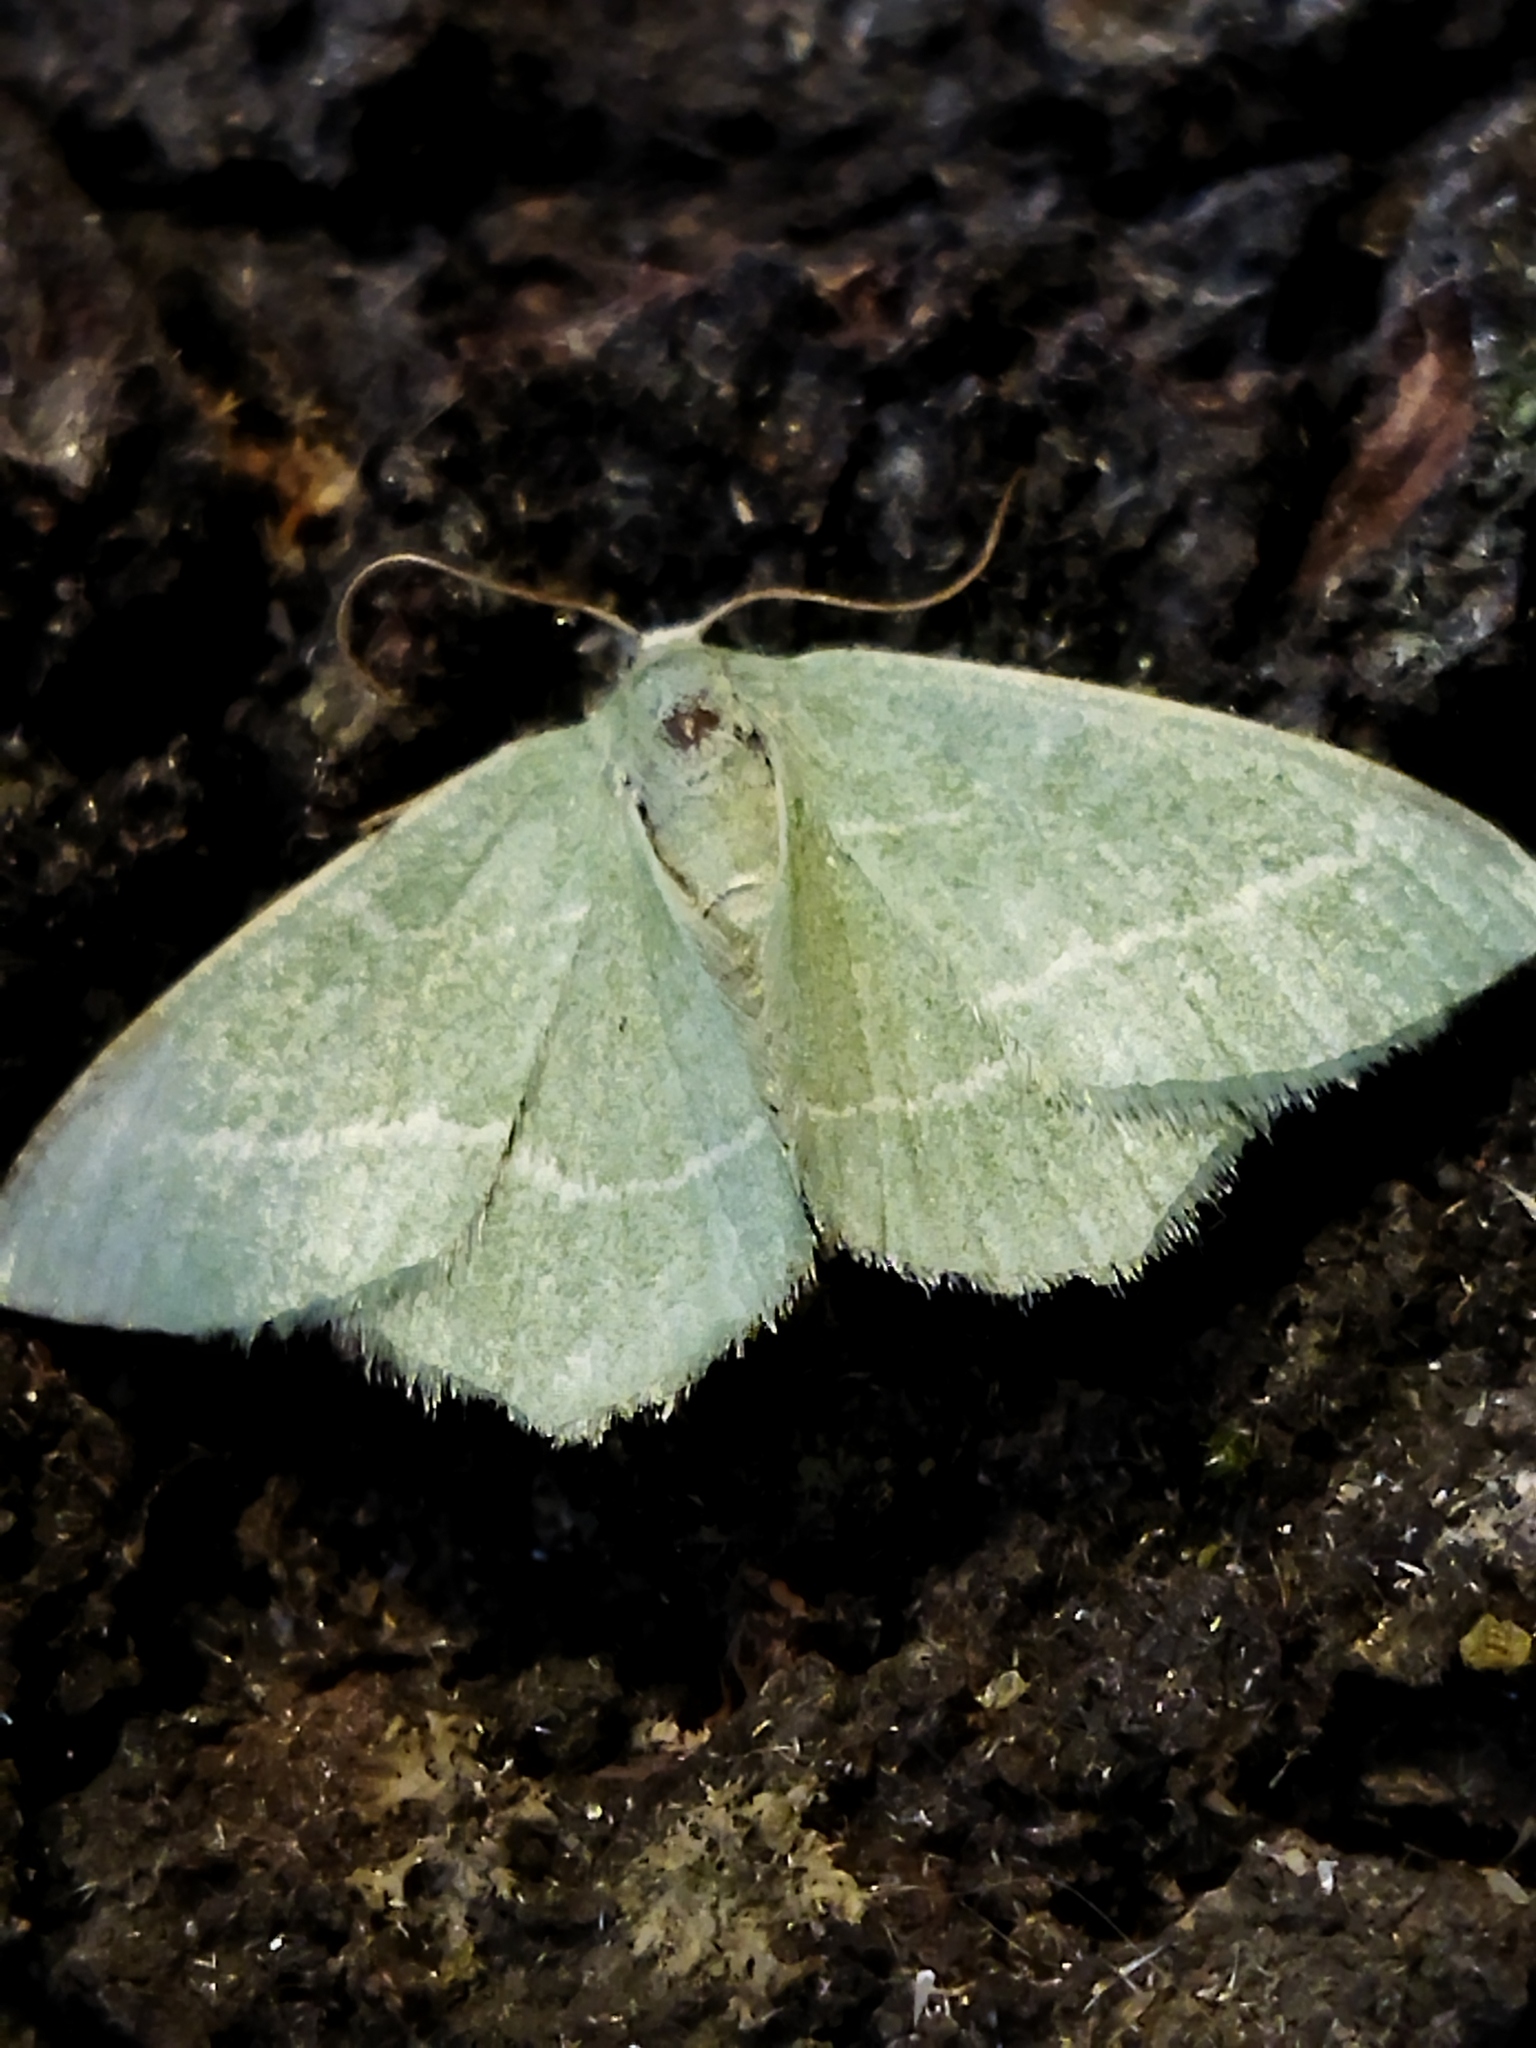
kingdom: Animalia
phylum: Arthropoda
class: Insecta
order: Lepidoptera
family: Geometridae
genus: Chlorissa
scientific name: Chlorissa
